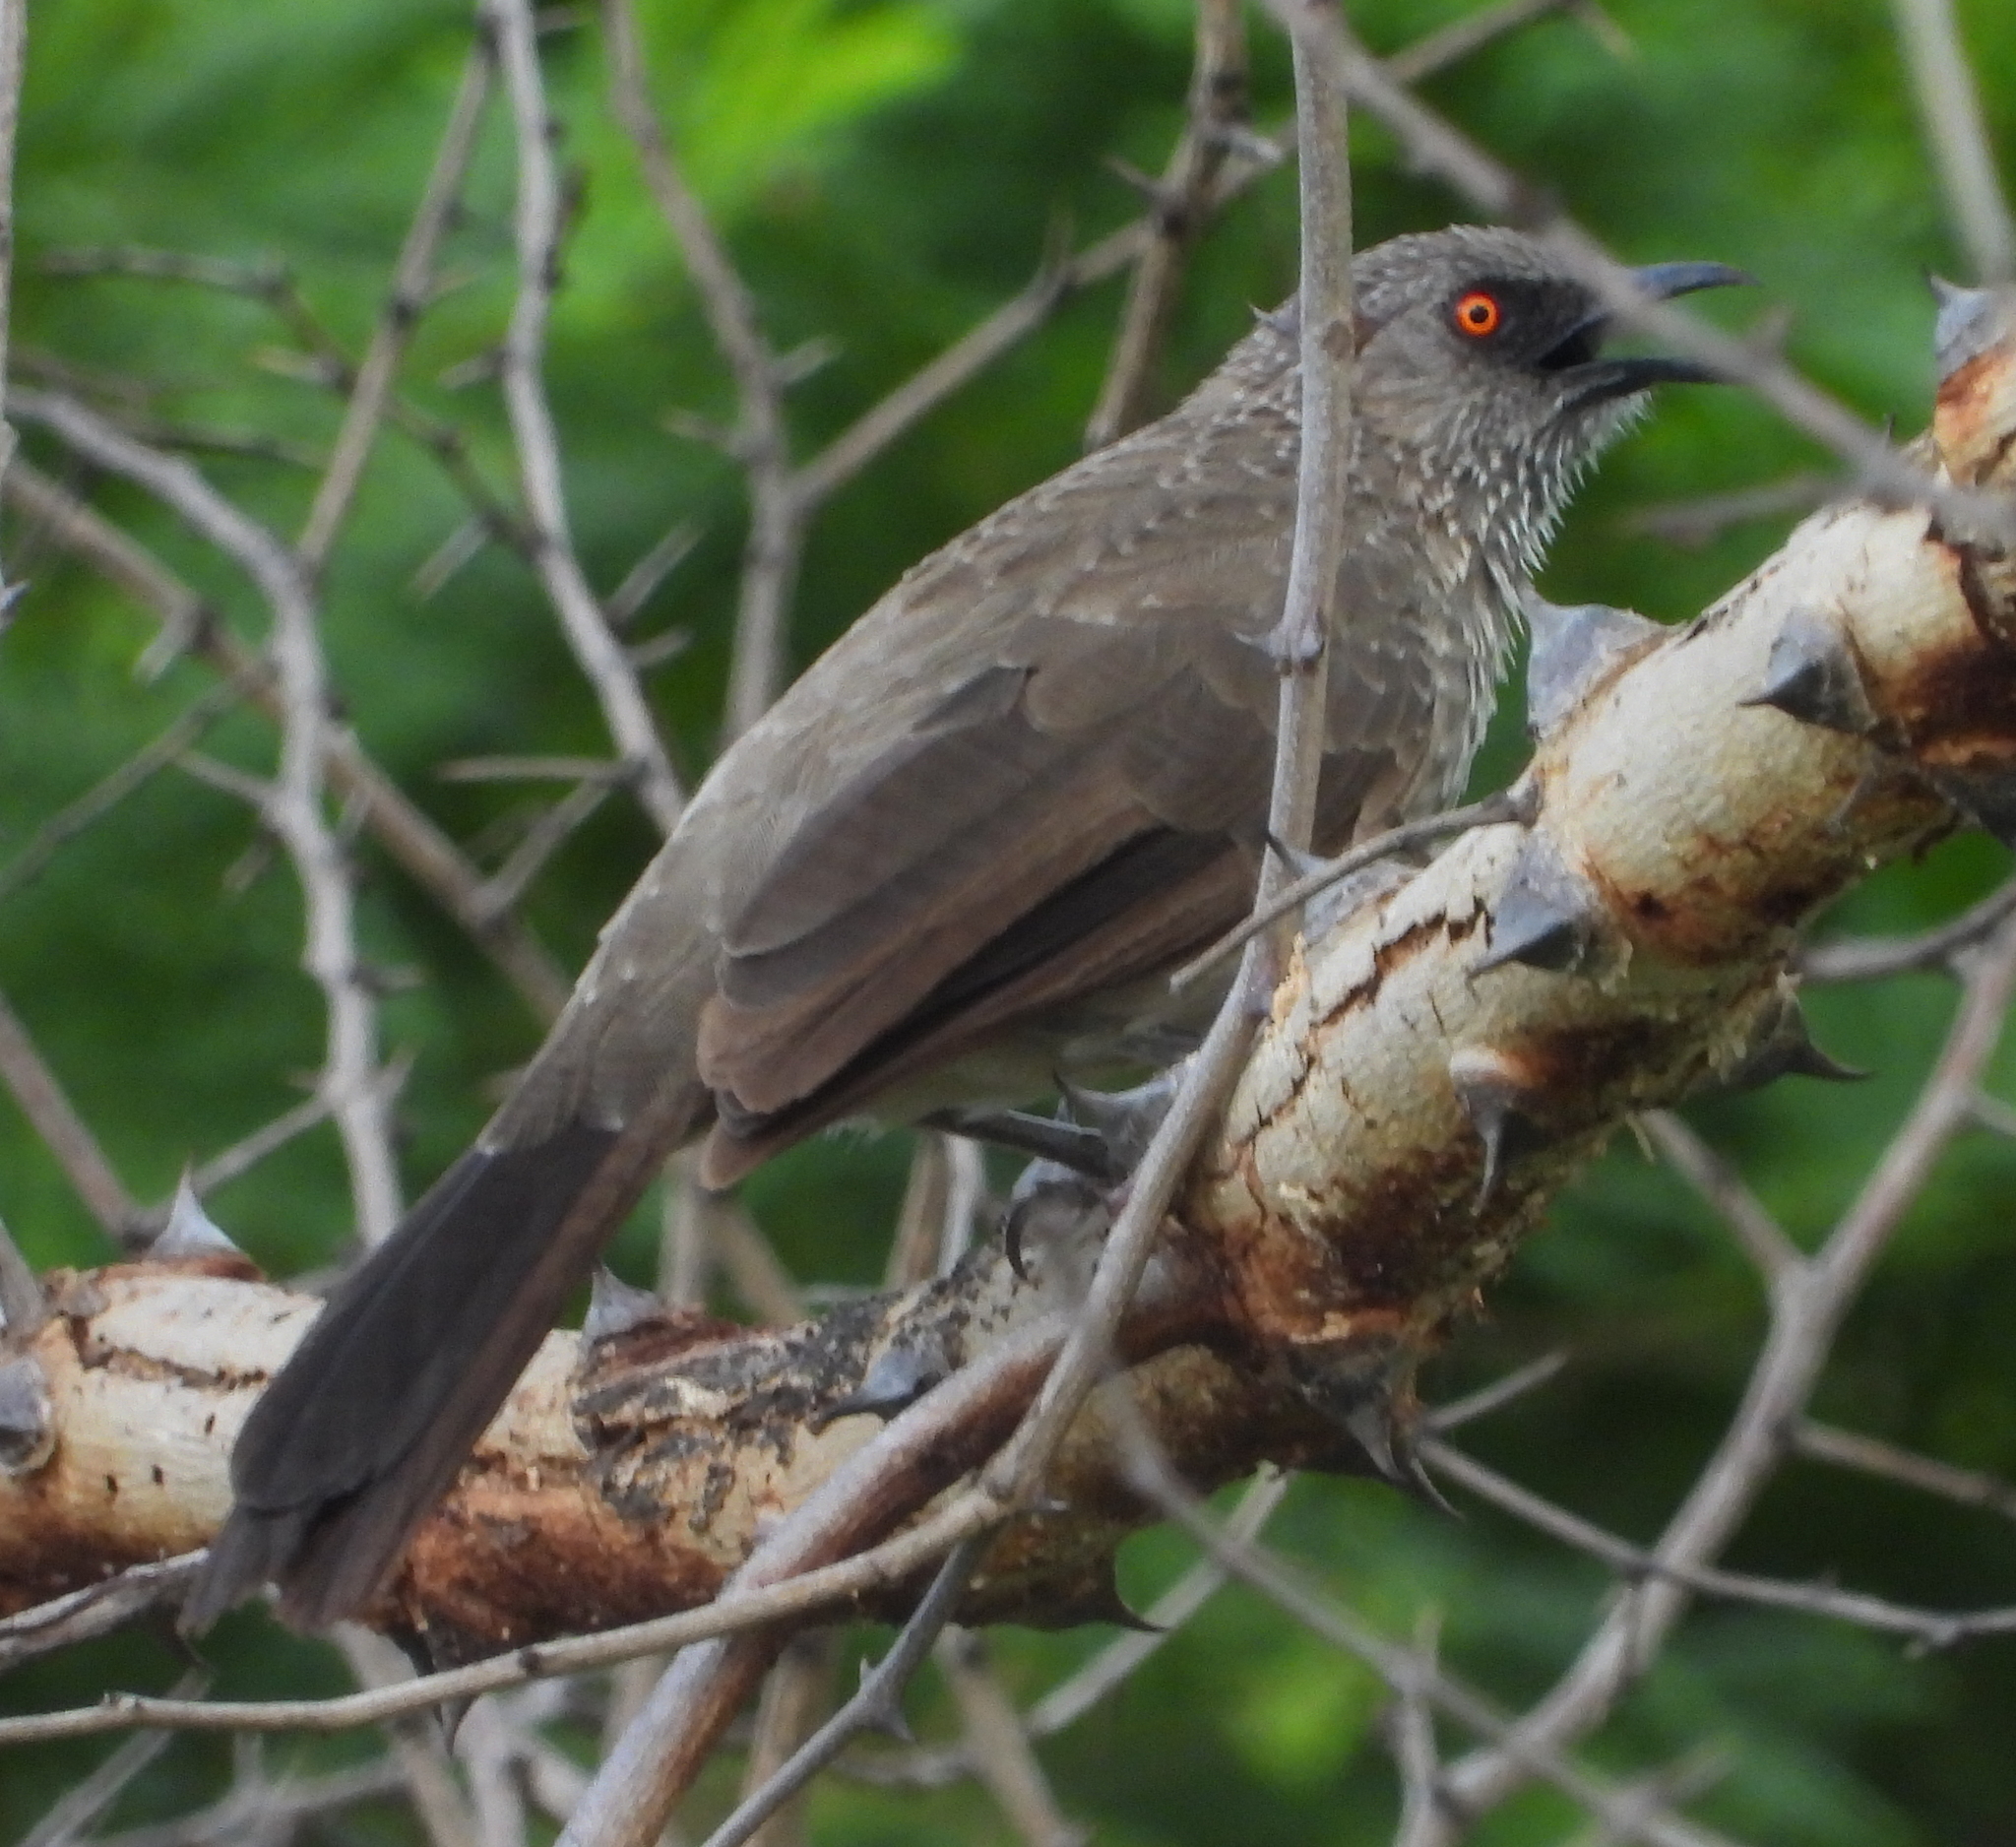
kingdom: Animalia
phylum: Chordata
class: Aves
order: Passeriformes
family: Leiothrichidae
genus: Turdoides
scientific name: Turdoides jardineii
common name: Arrow-marked babbler
